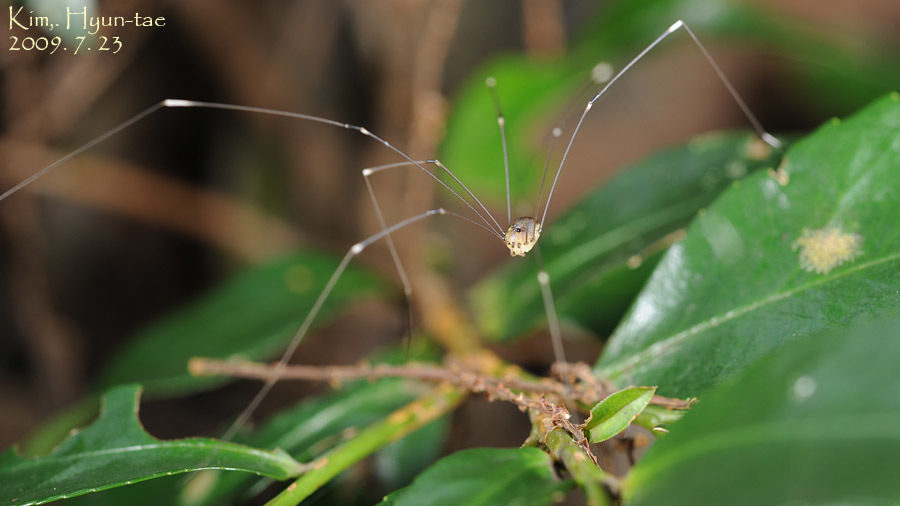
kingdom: Animalia
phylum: Arthropoda
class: Arachnida
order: Opiliones
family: Sclerosomatidae
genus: Leiobunum
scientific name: Leiobunum japonicum
